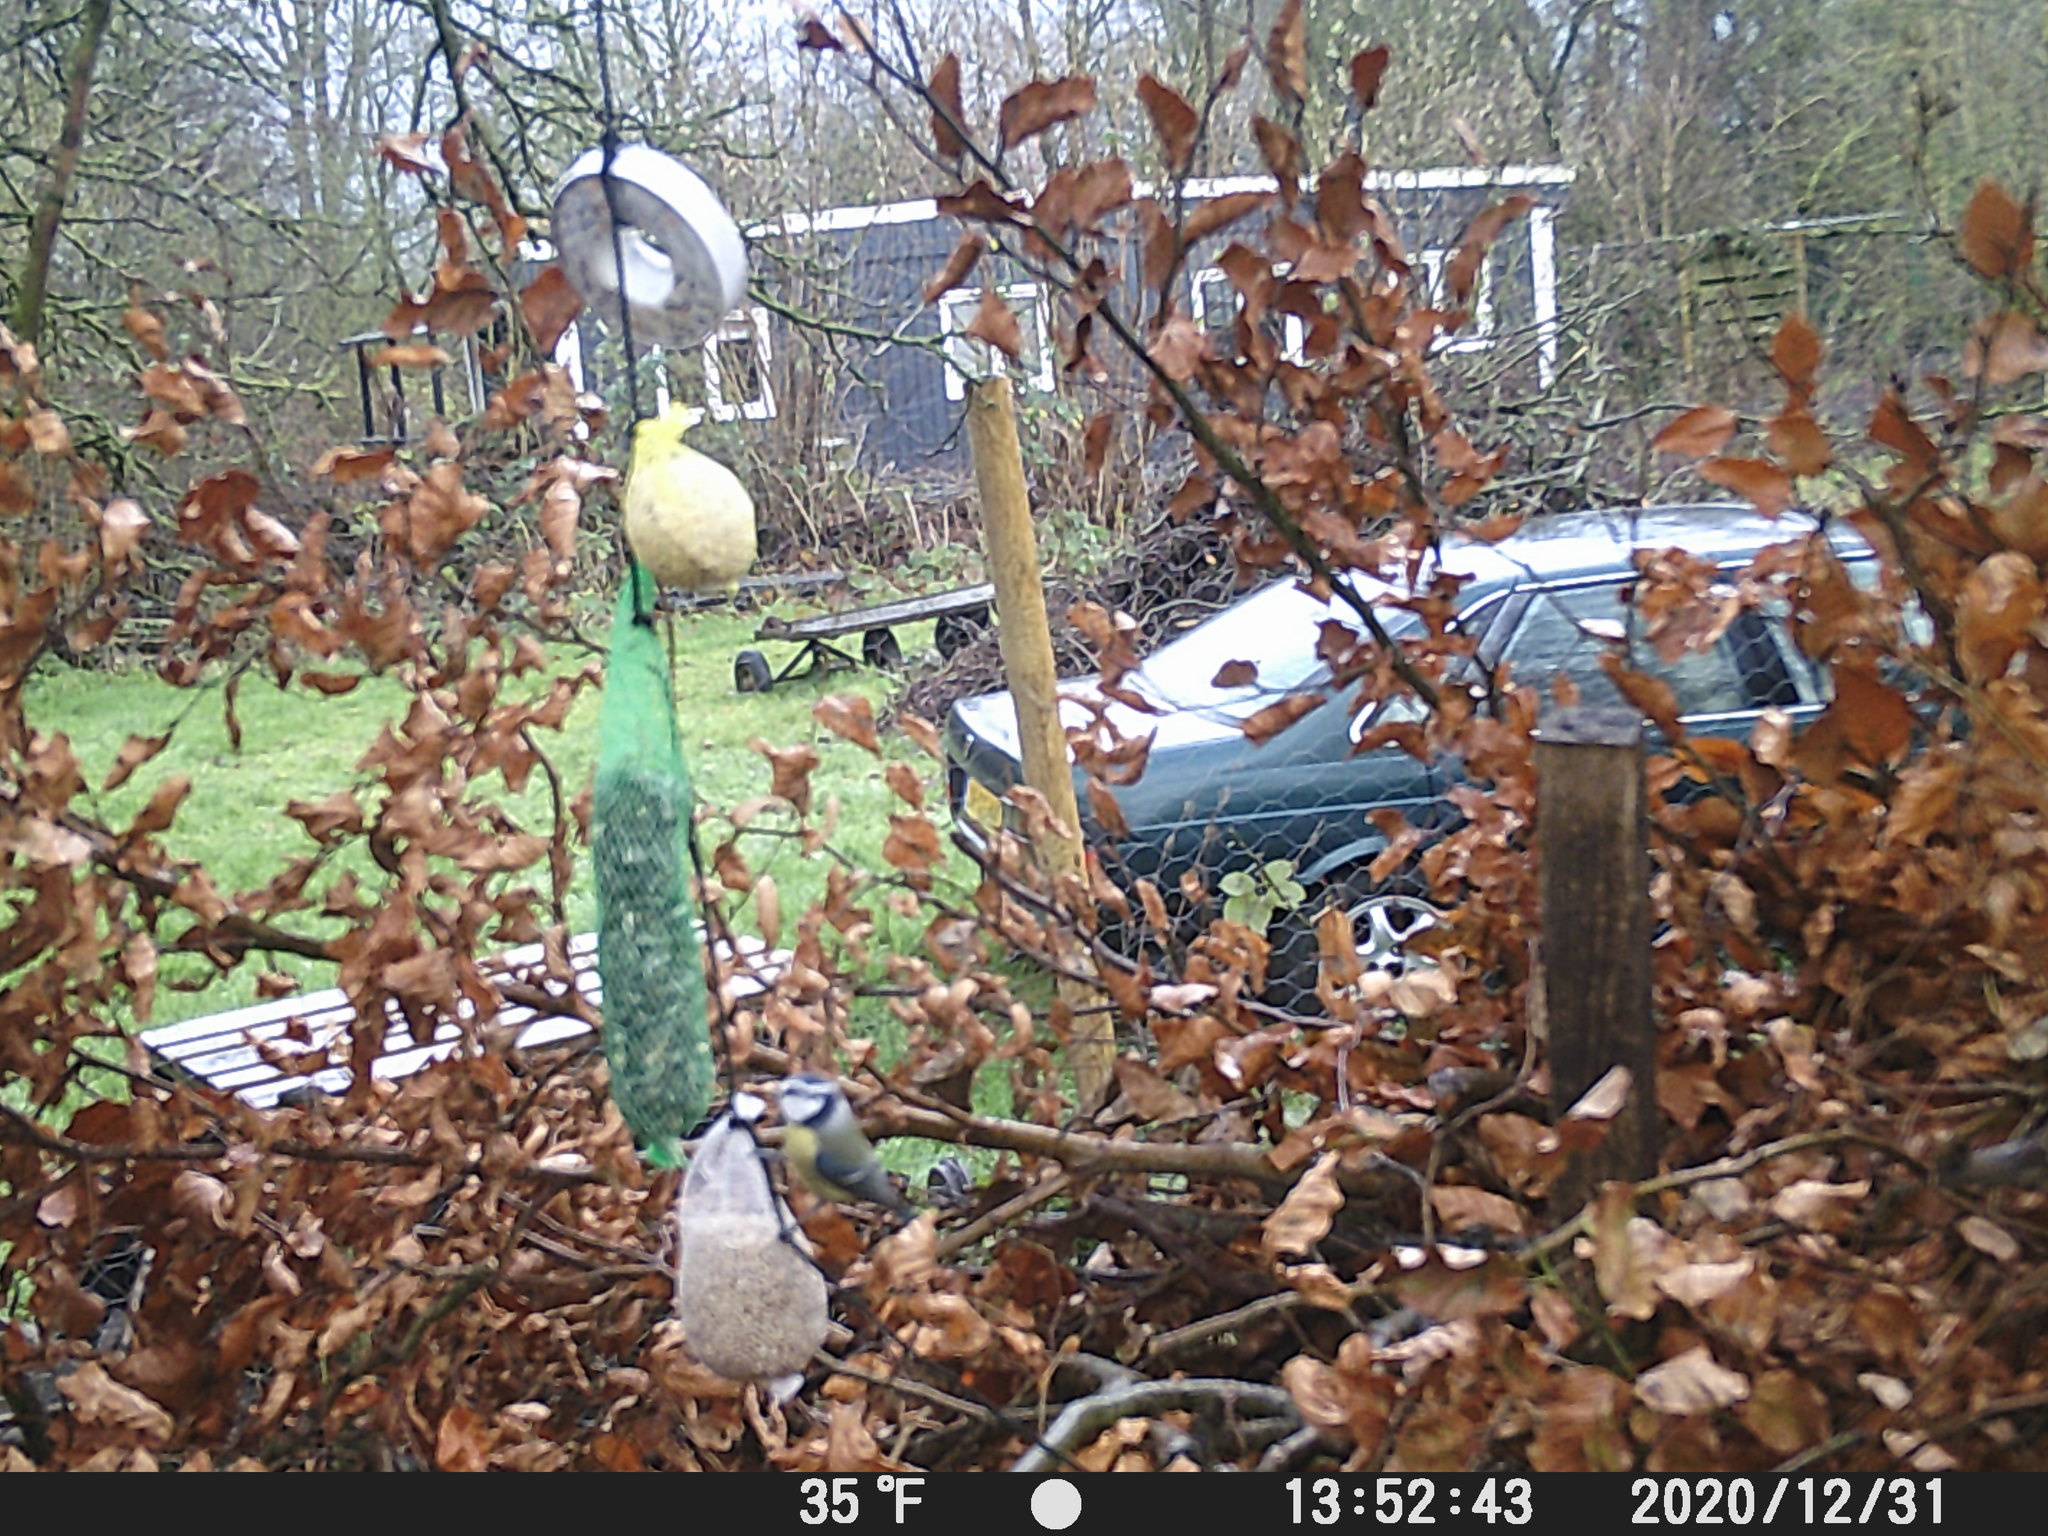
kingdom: Animalia
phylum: Chordata
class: Aves
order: Passeriformes
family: Paridae
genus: Cyanistes
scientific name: Cyanistes caeruleus
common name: Eurasian blue tit
